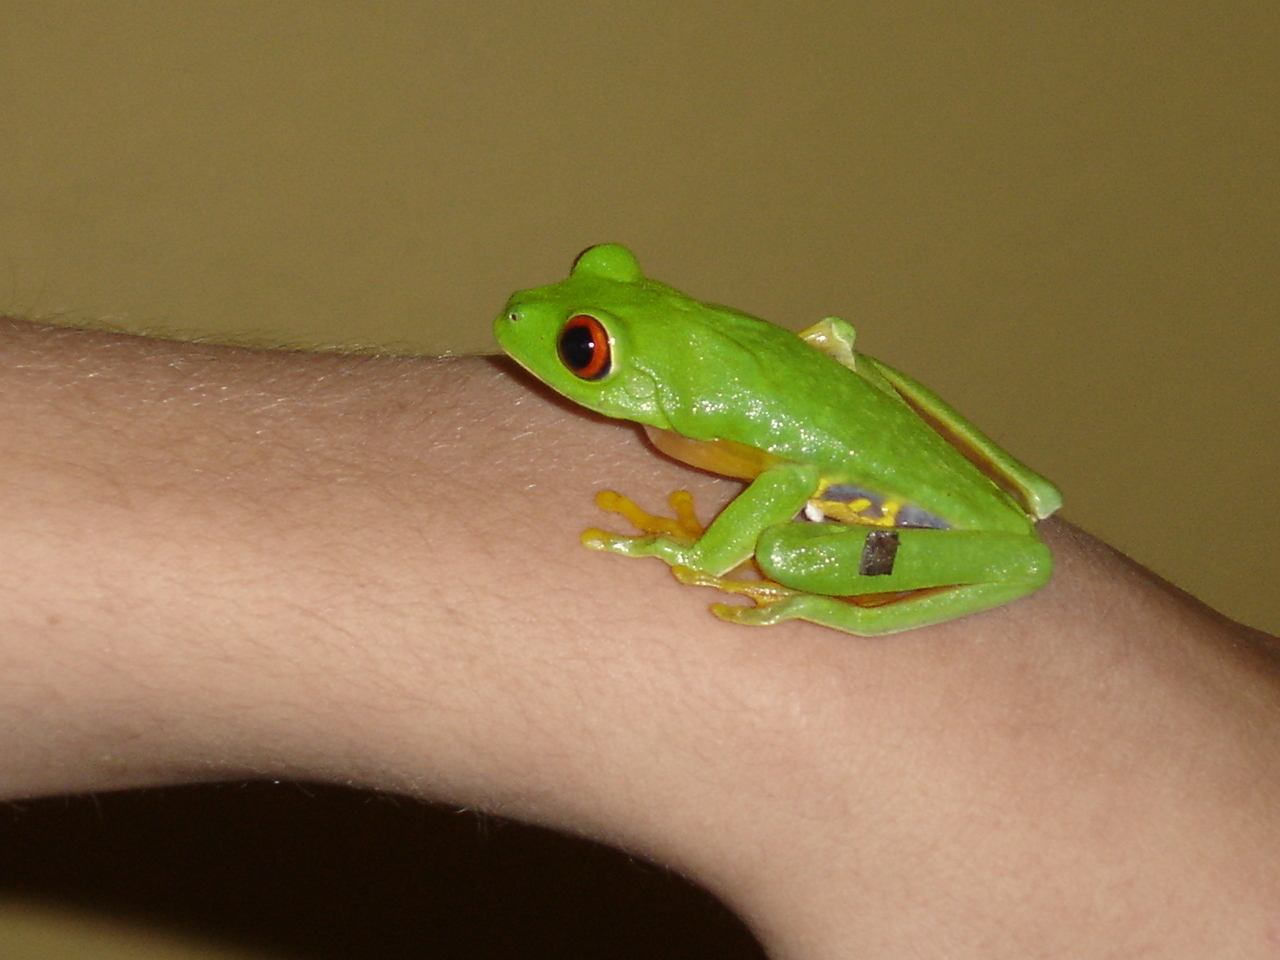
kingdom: Animalia
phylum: Chordata
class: Amphibia
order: Anura
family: Phyllomedusidae
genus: Agalychnis
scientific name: Agalychnis
